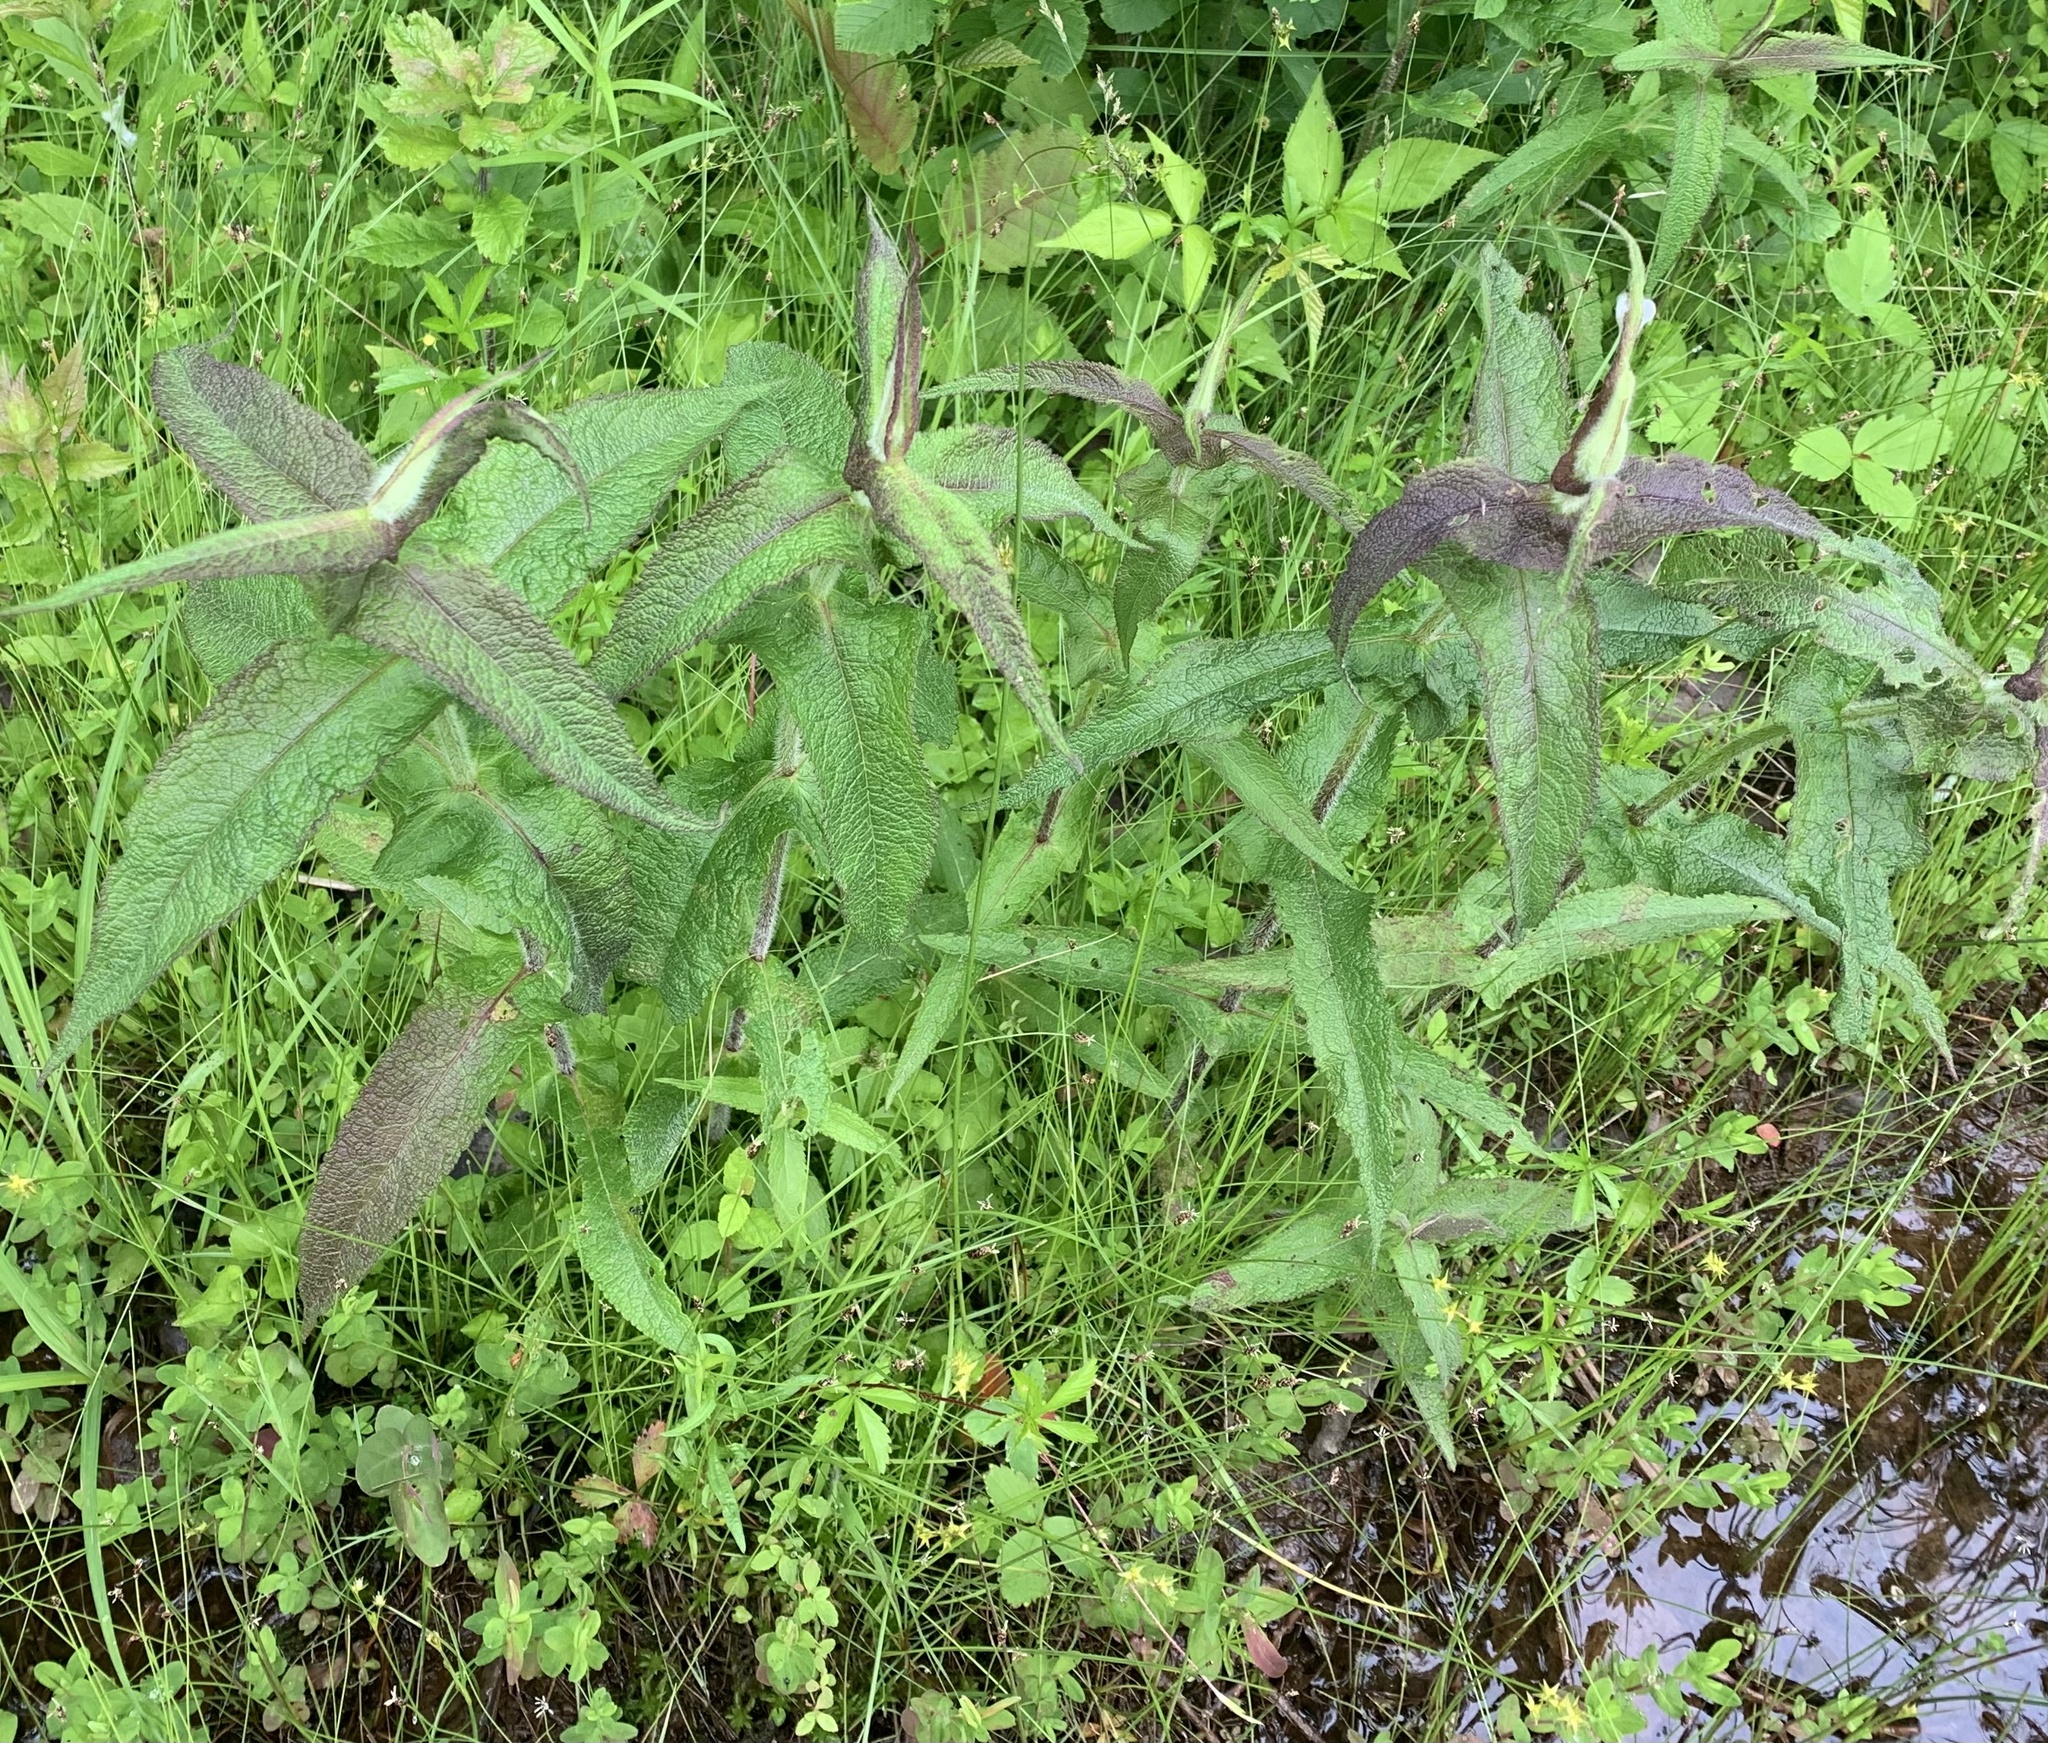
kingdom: Plantae
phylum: Tracheophyta
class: Magnoliopsida
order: Asterales
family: Asteraceae
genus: Eupatorium
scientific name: Eupatorium perfoliatum
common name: Boneset
